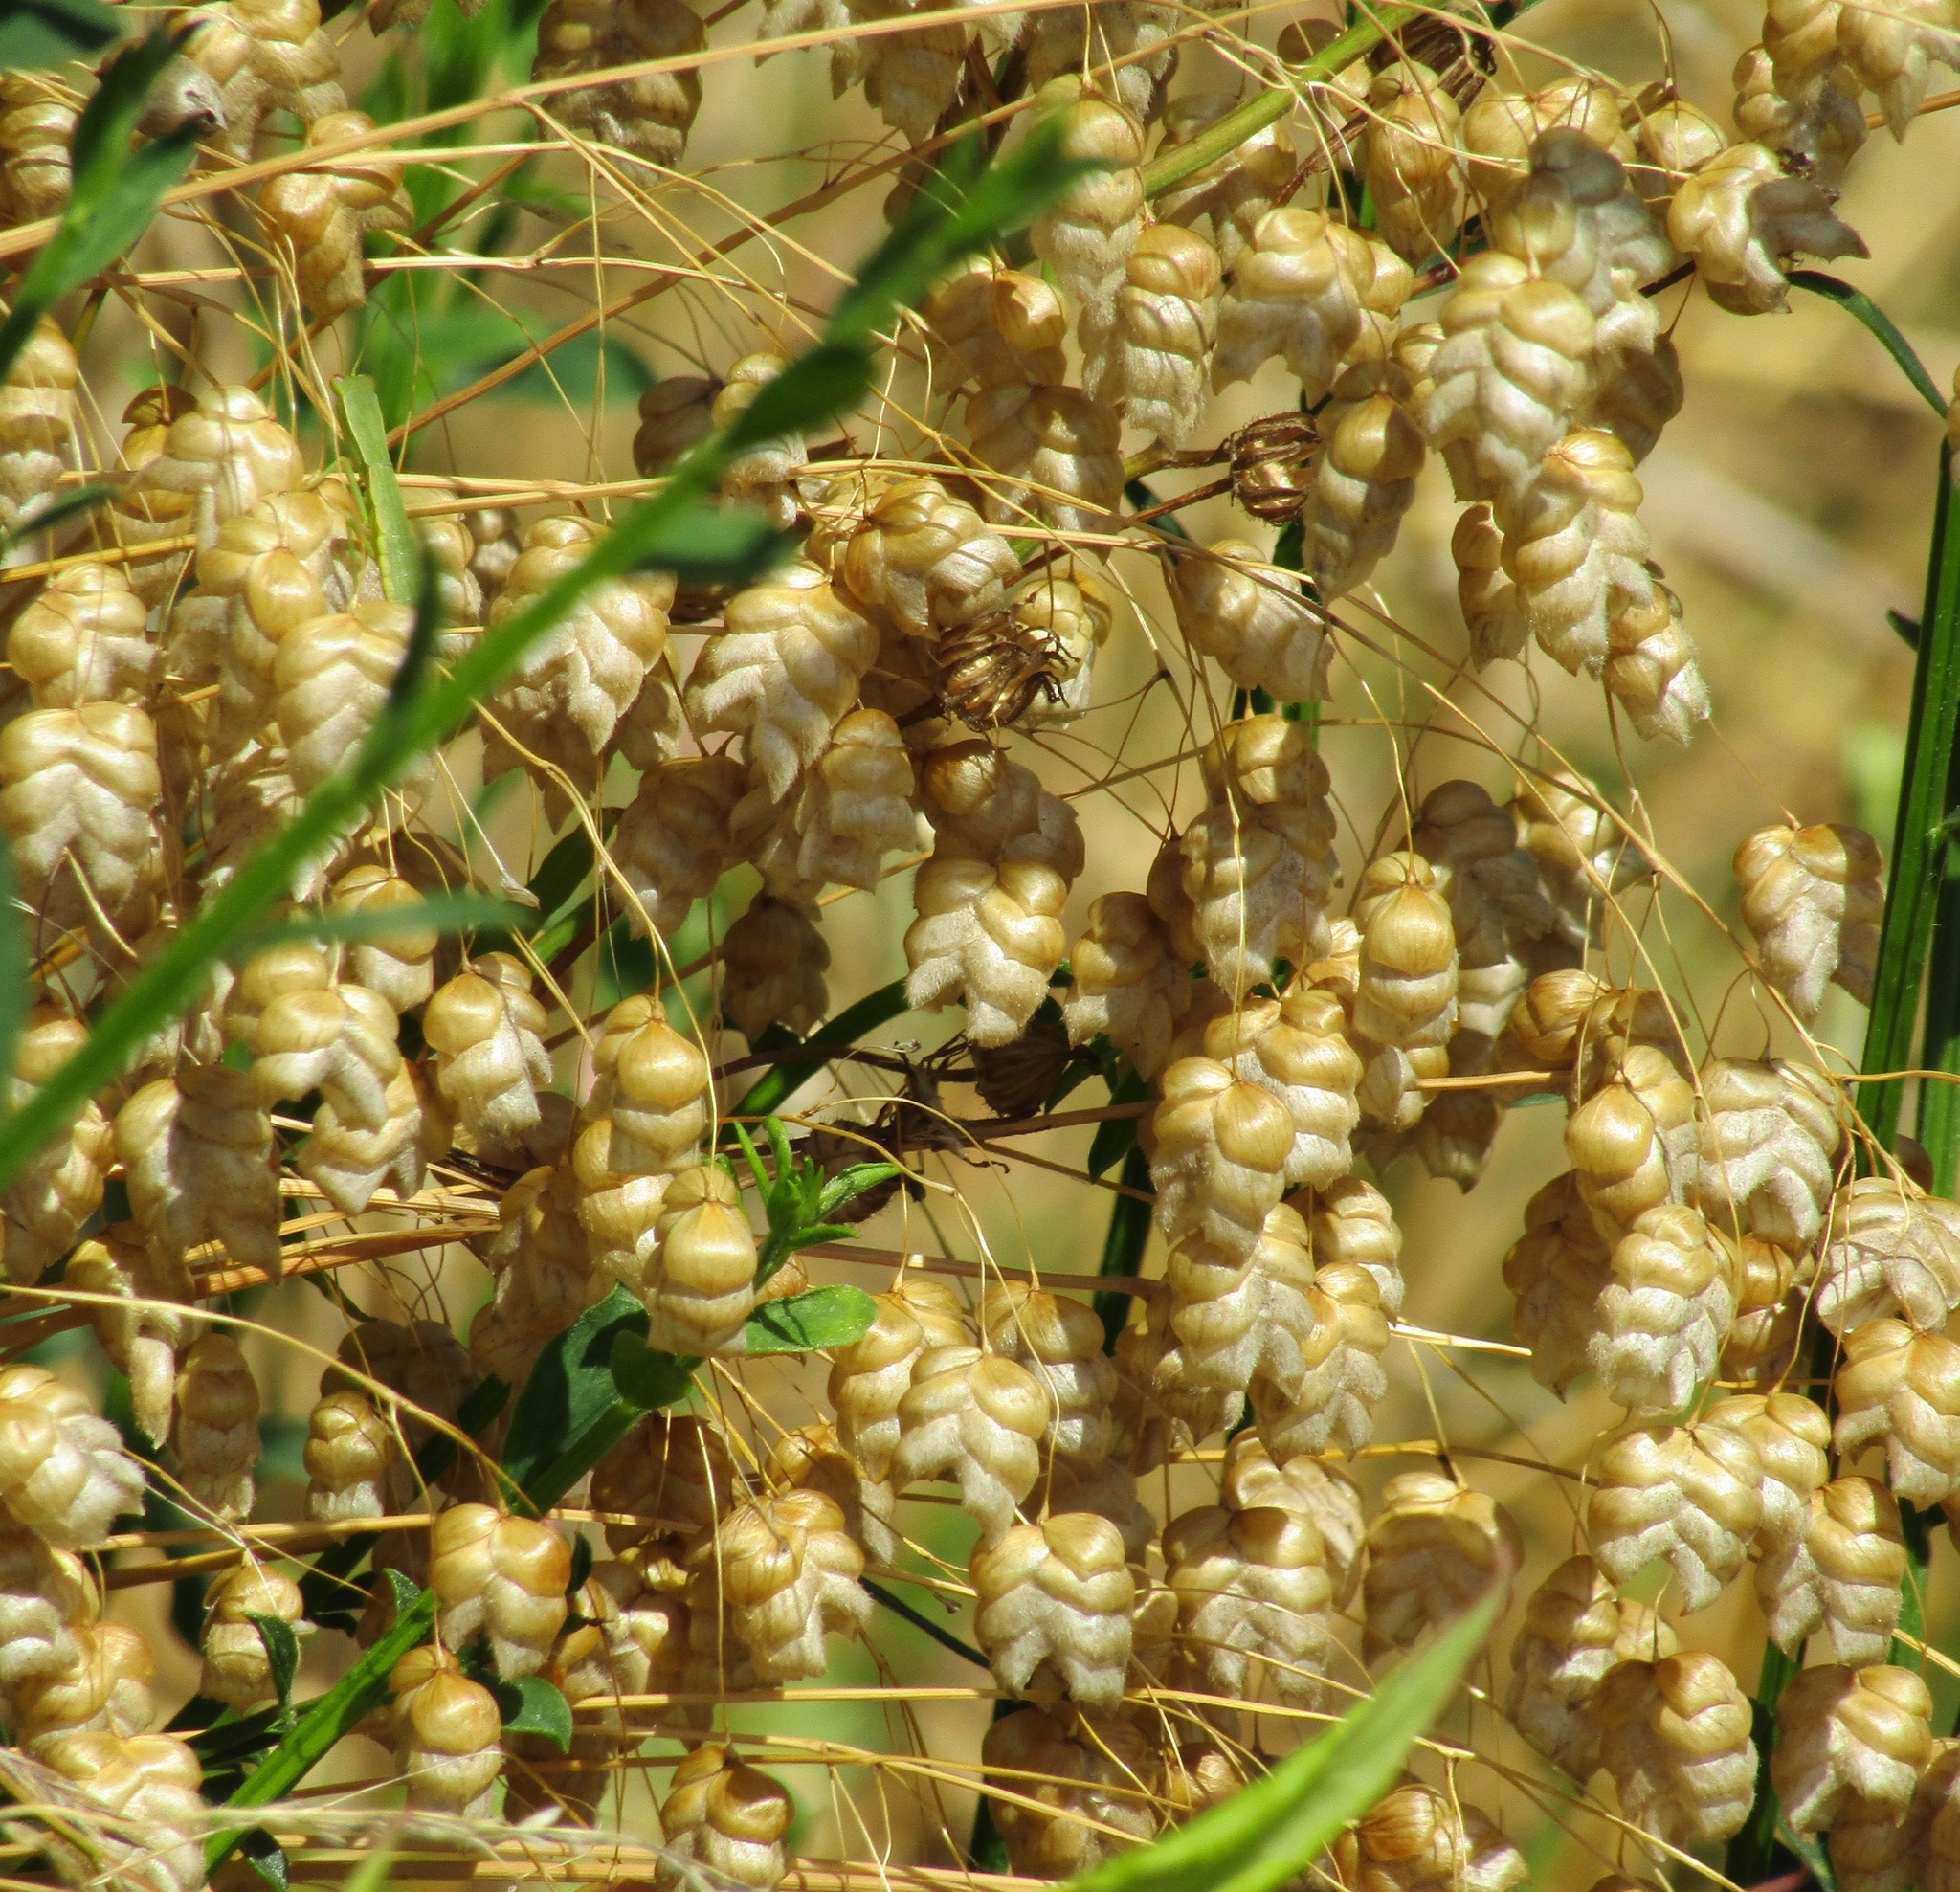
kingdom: Plantae
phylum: Tracheophyta
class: Liliopsida
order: Poales
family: Poaceae
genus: Briza
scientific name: Briza maxima
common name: Big quakinggrass
